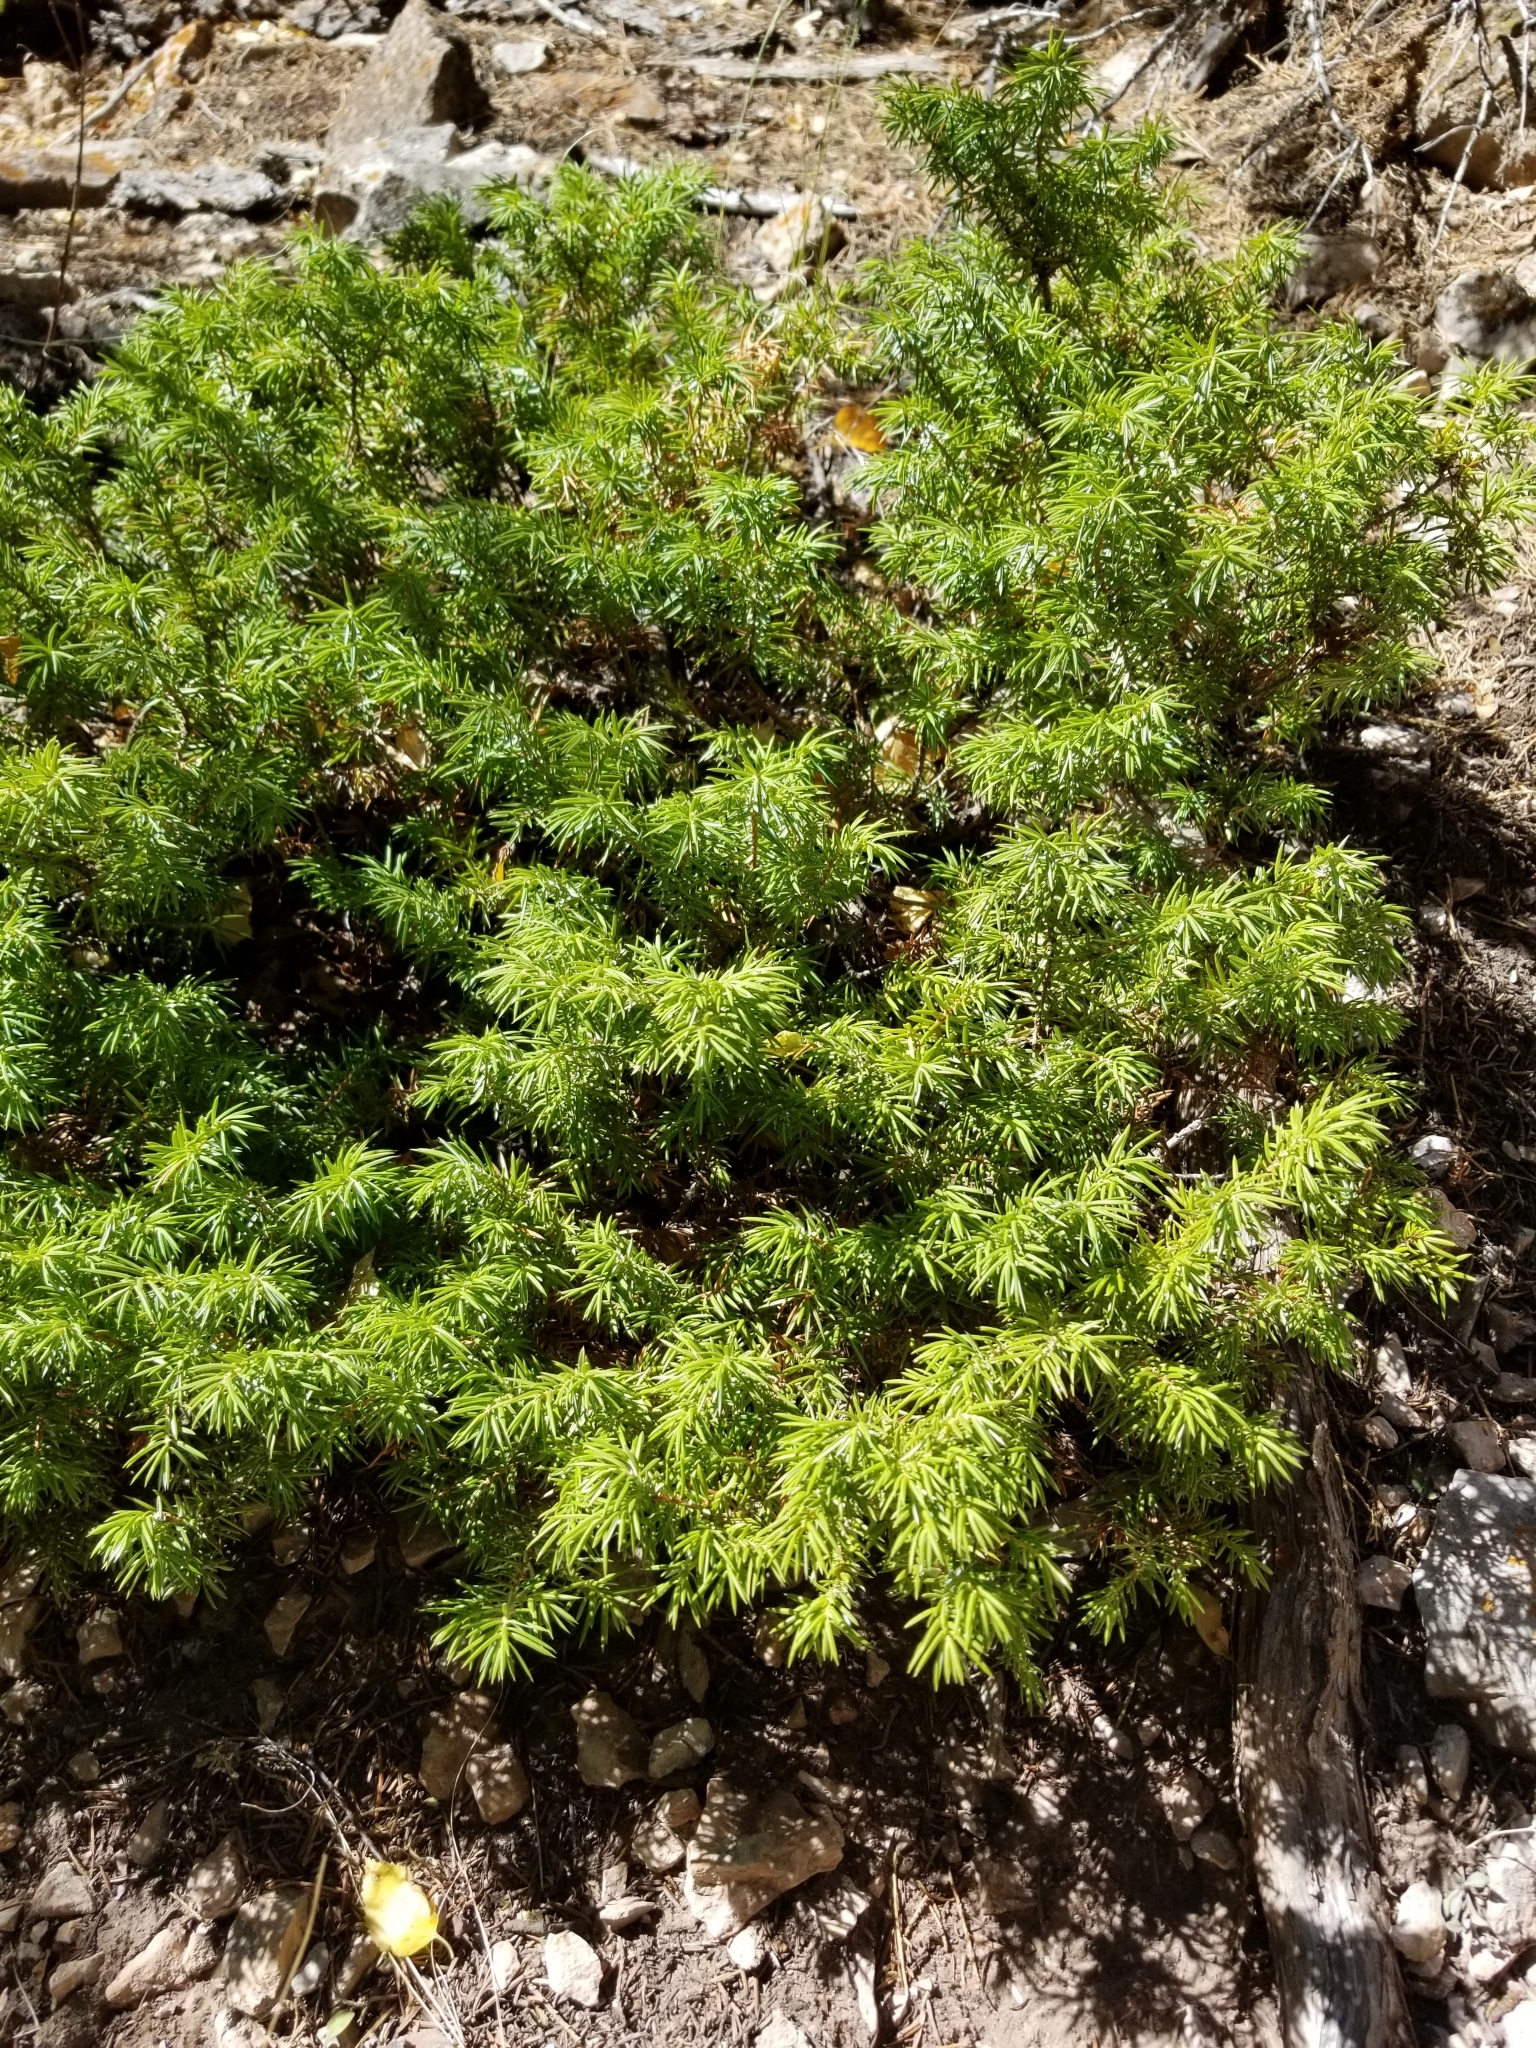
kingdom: Plantae
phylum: Tracheophyta
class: Pinopsida
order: Pinales
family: Cupressaceae
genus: Juniperus
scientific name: Juniperus communis
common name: Common juniper
